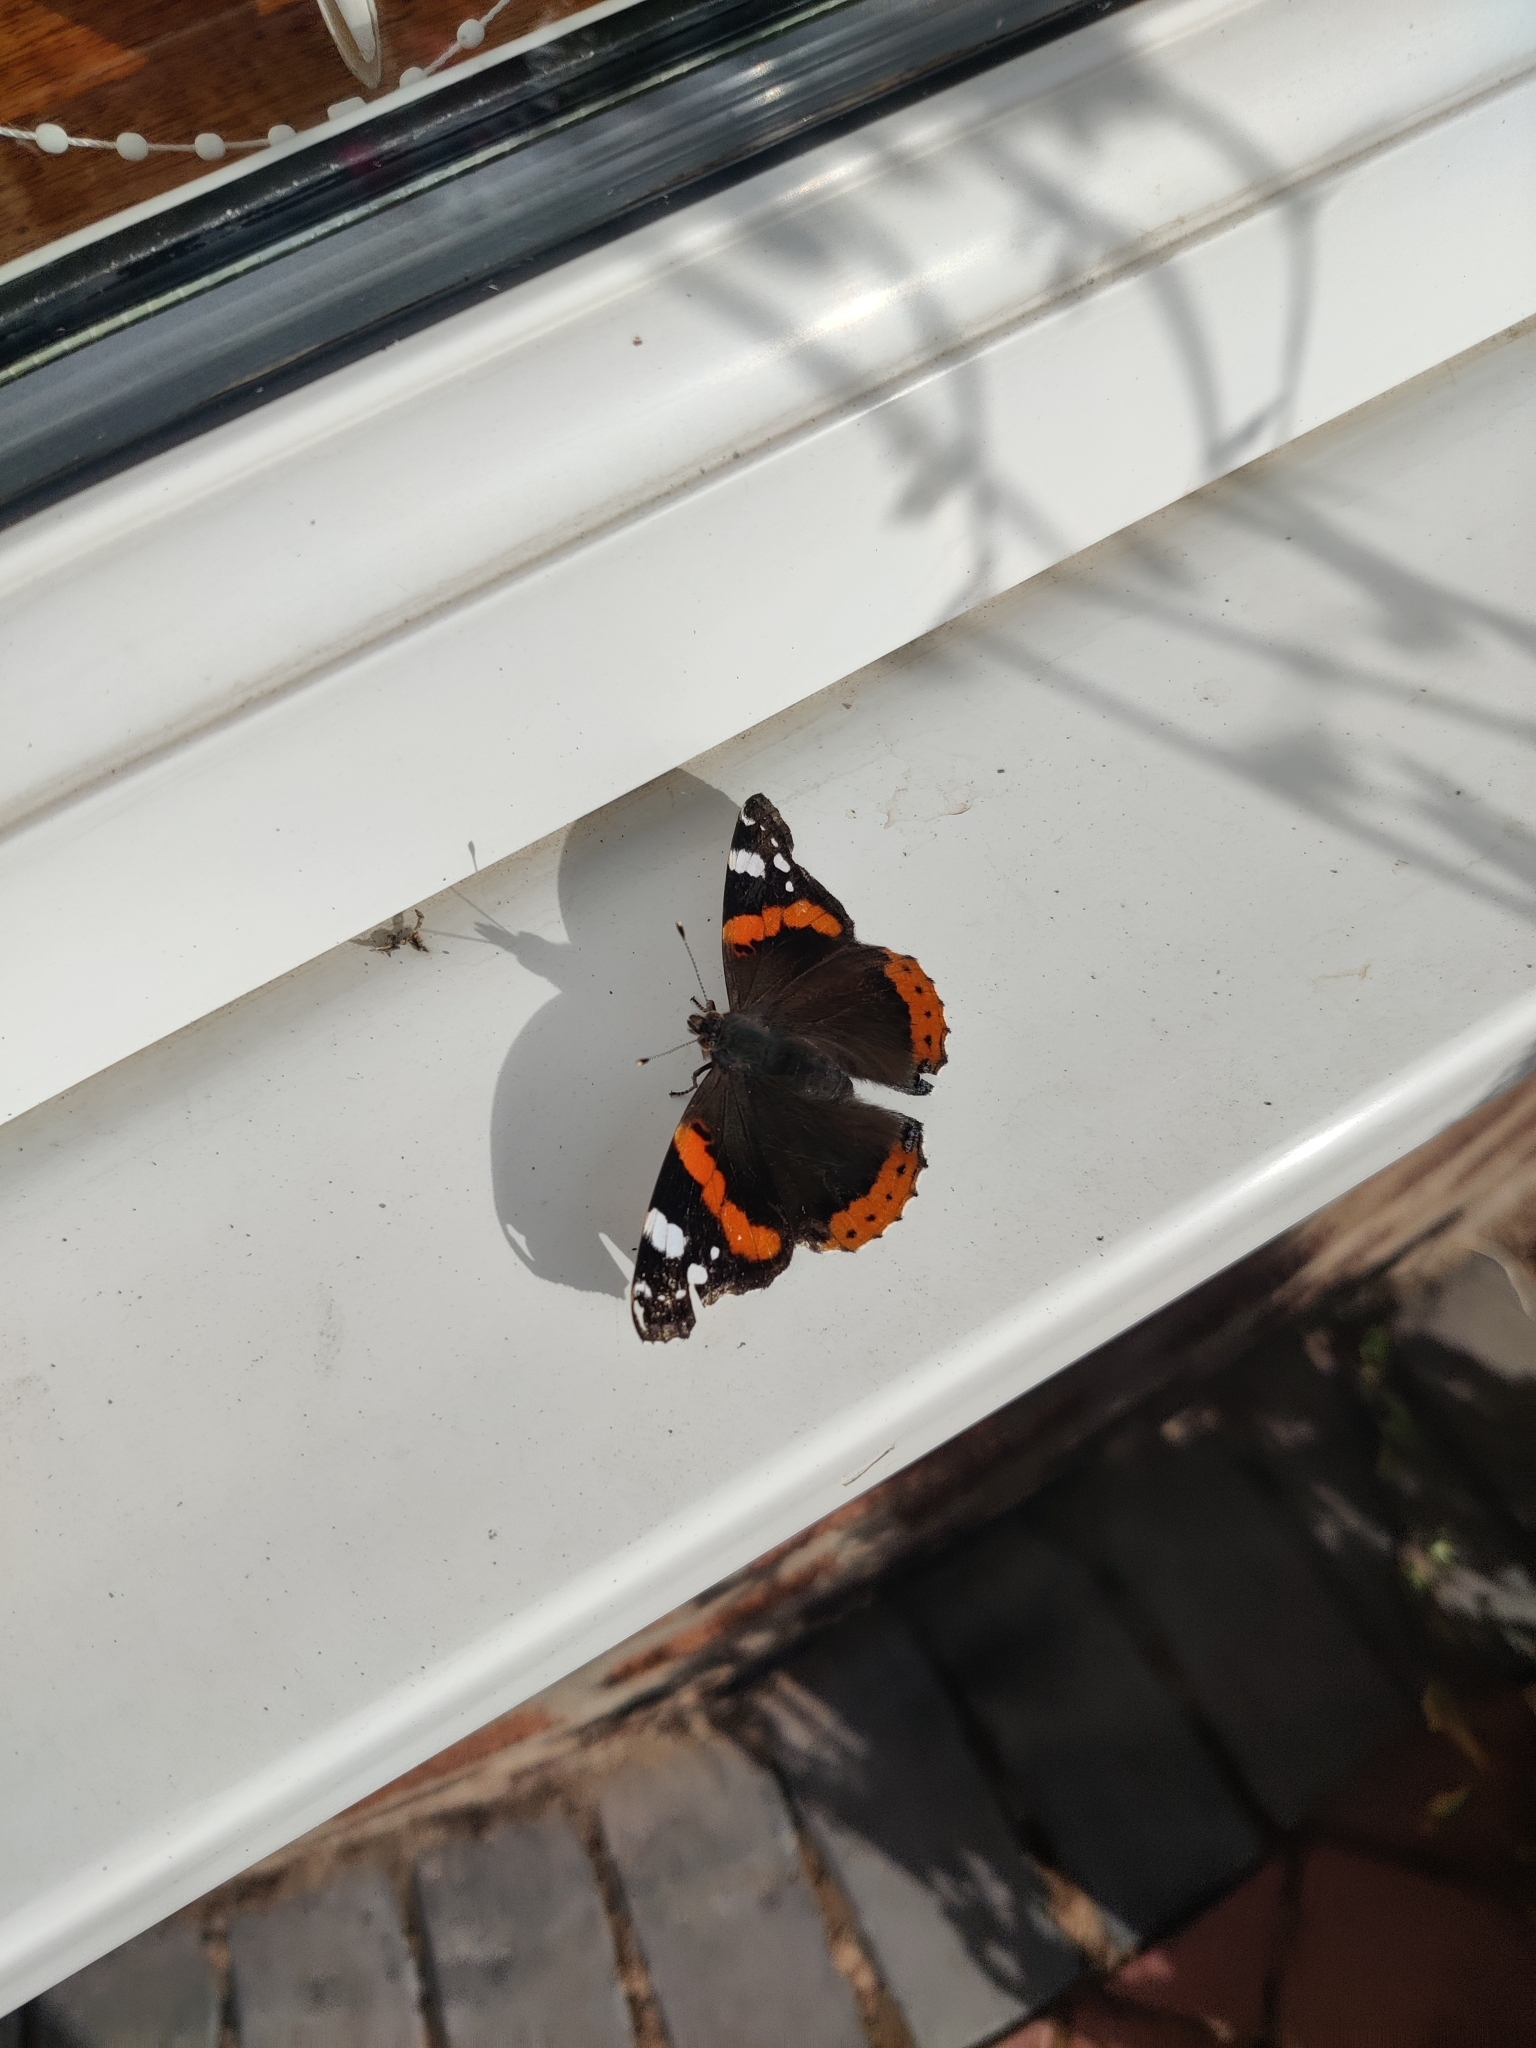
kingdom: Animalia
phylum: Arthropoda
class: Insecta
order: Lepidoptera
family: Nymphalidae
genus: Vanessa
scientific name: Vanessa atalanta
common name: Red admiral
